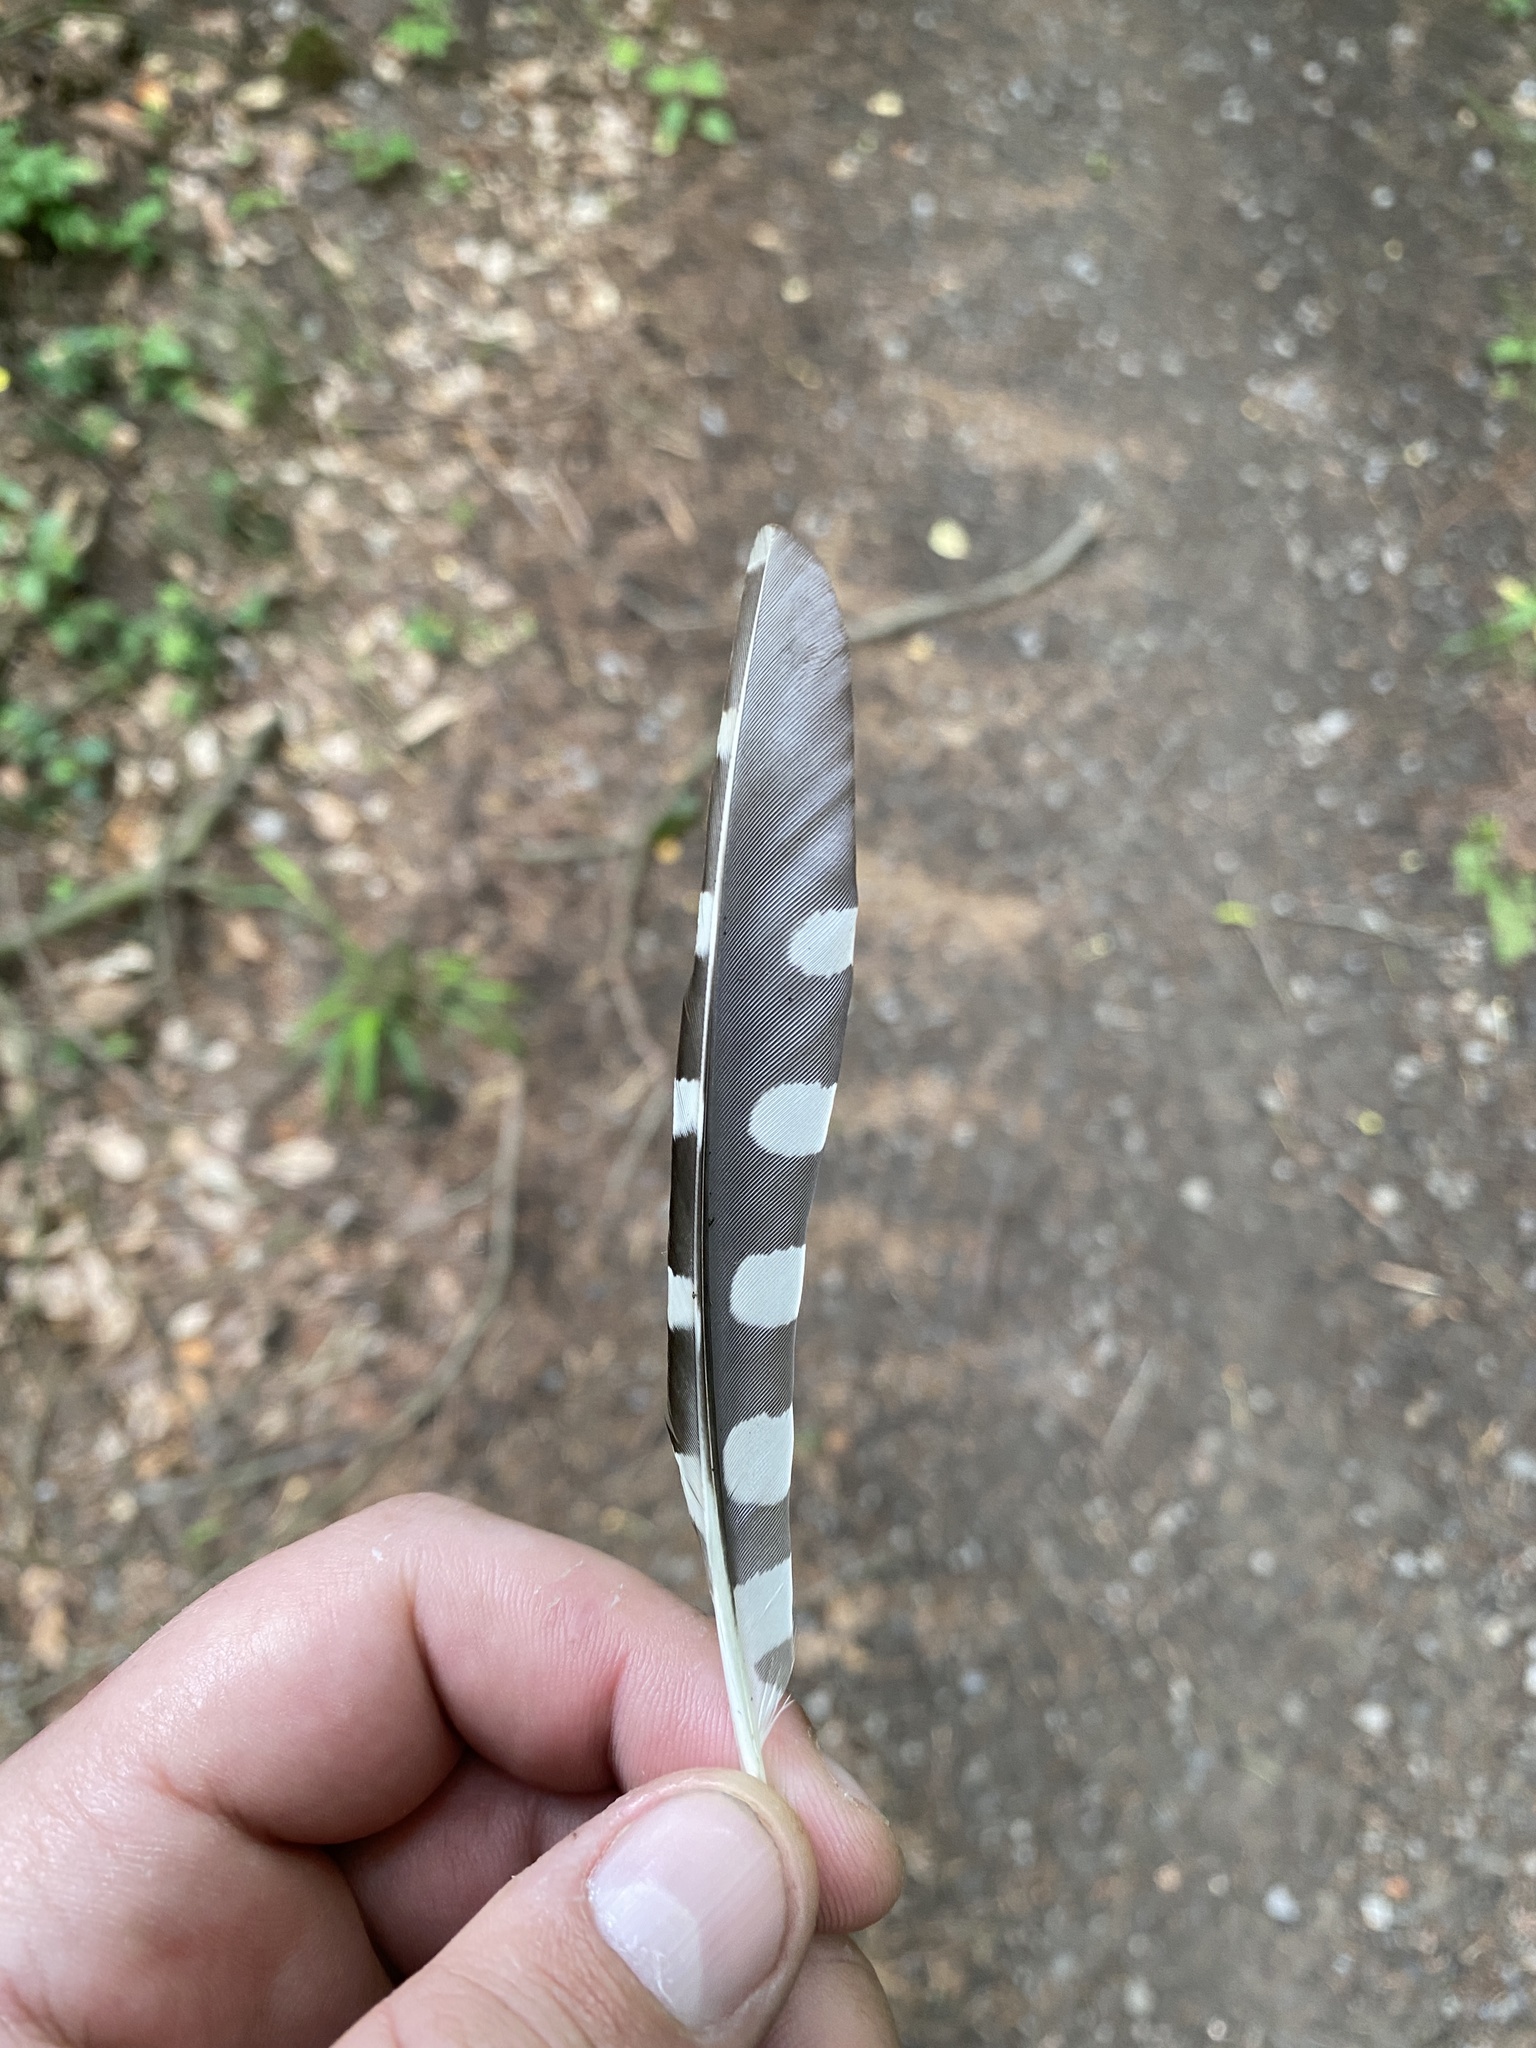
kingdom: Animalia
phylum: Chordata
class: Aves
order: Piciformes
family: Picidae
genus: Dendrocopos
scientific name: Dendrocopos
